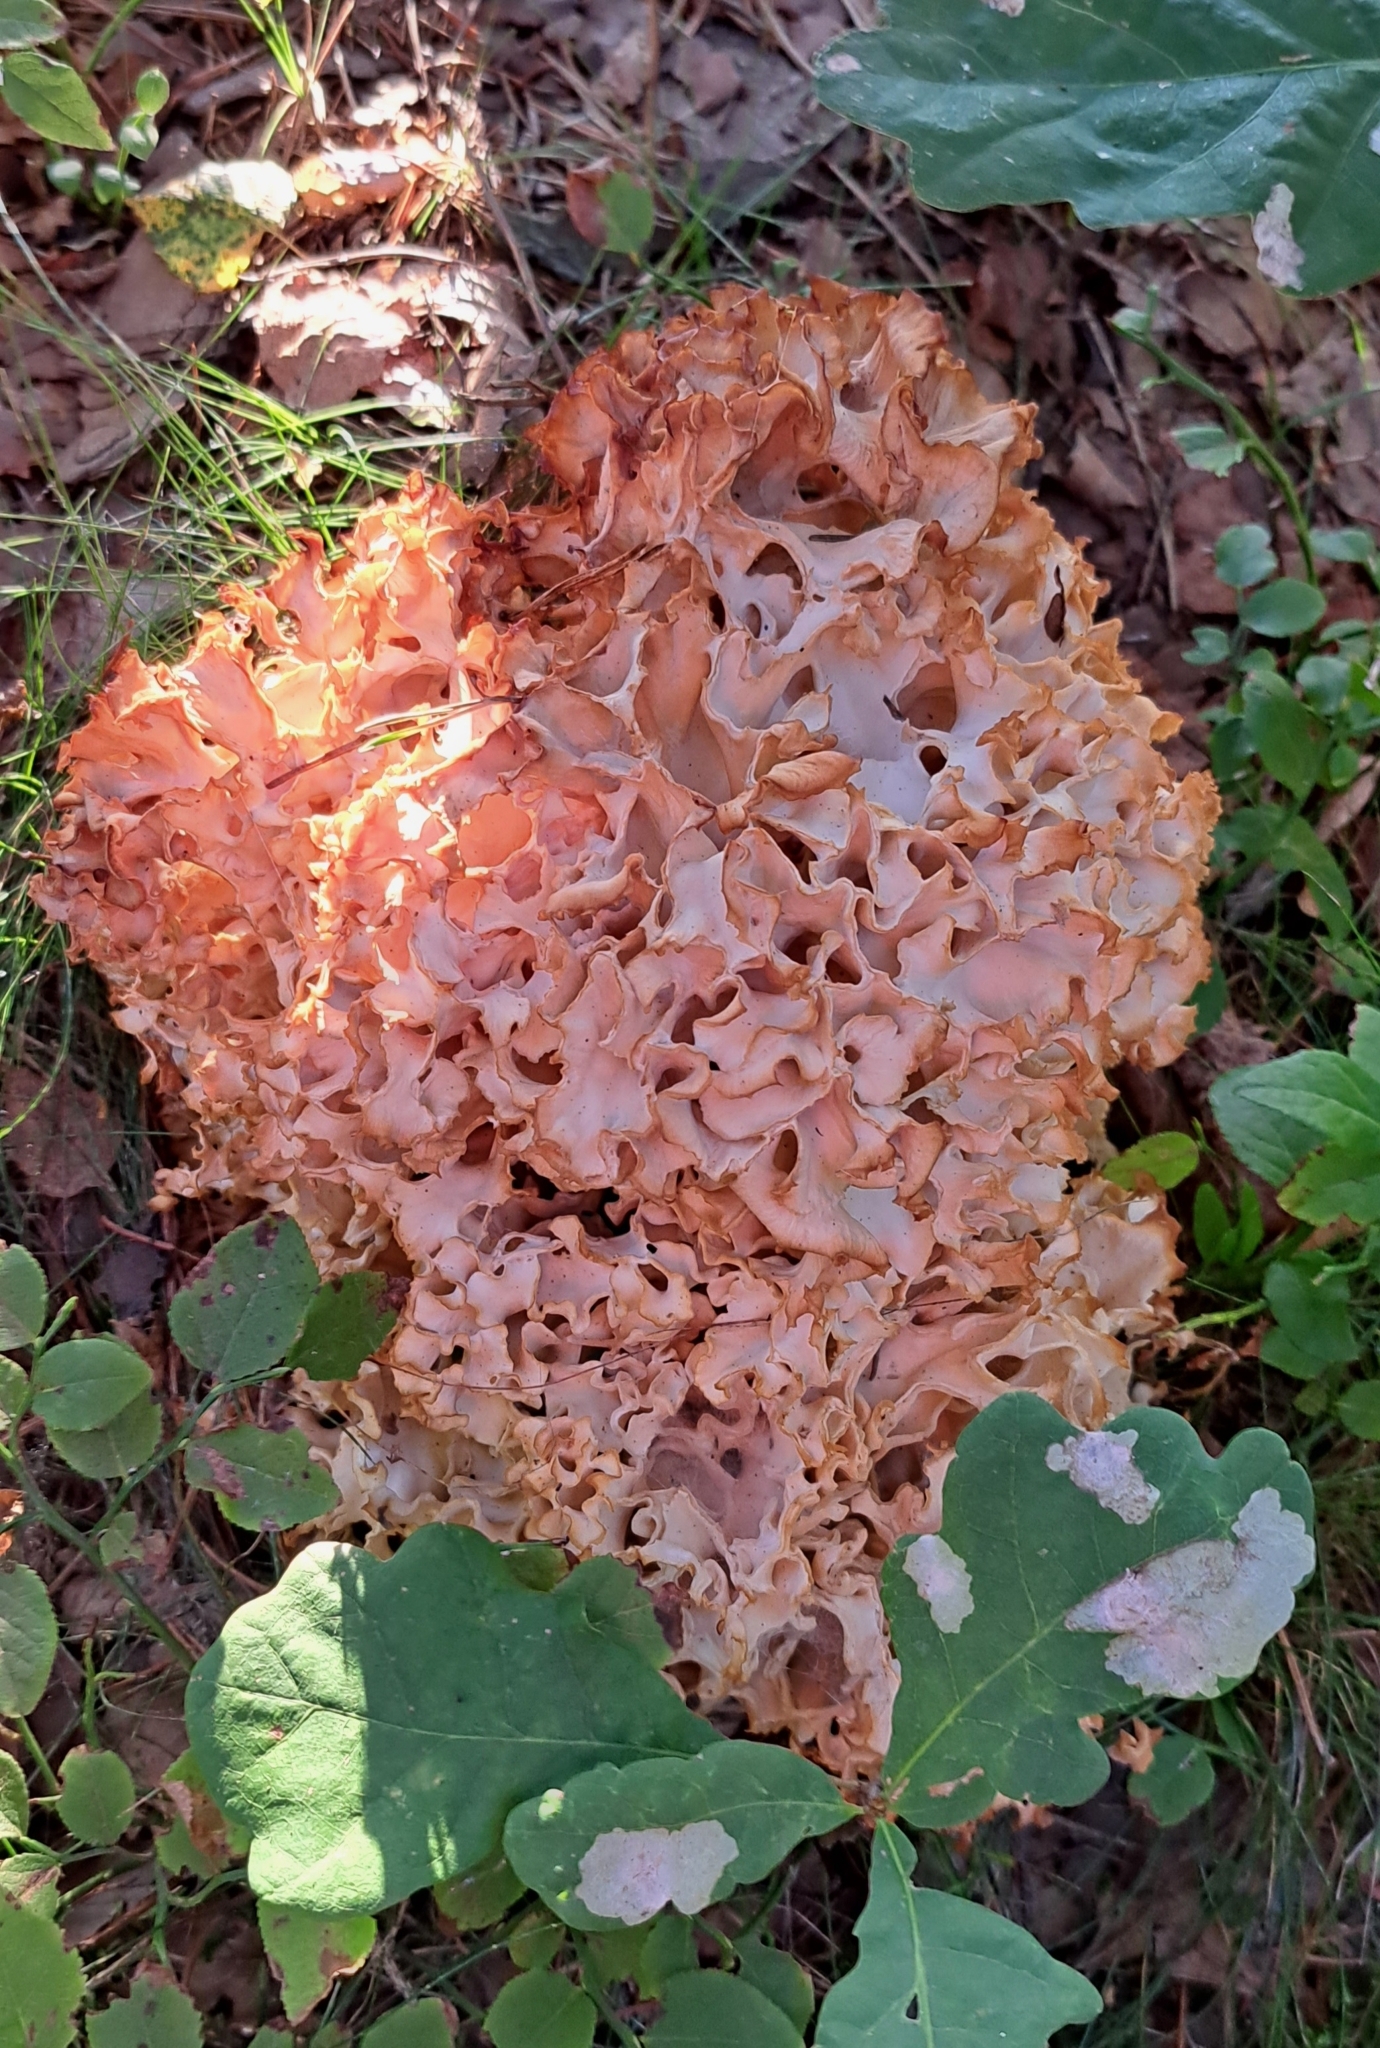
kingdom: Fungi
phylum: Basidiomycota
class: Agaricomycetes
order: Polyporales
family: Sparassidaceae
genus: Sparassis
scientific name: Sparassis crispa
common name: Brain fungus
